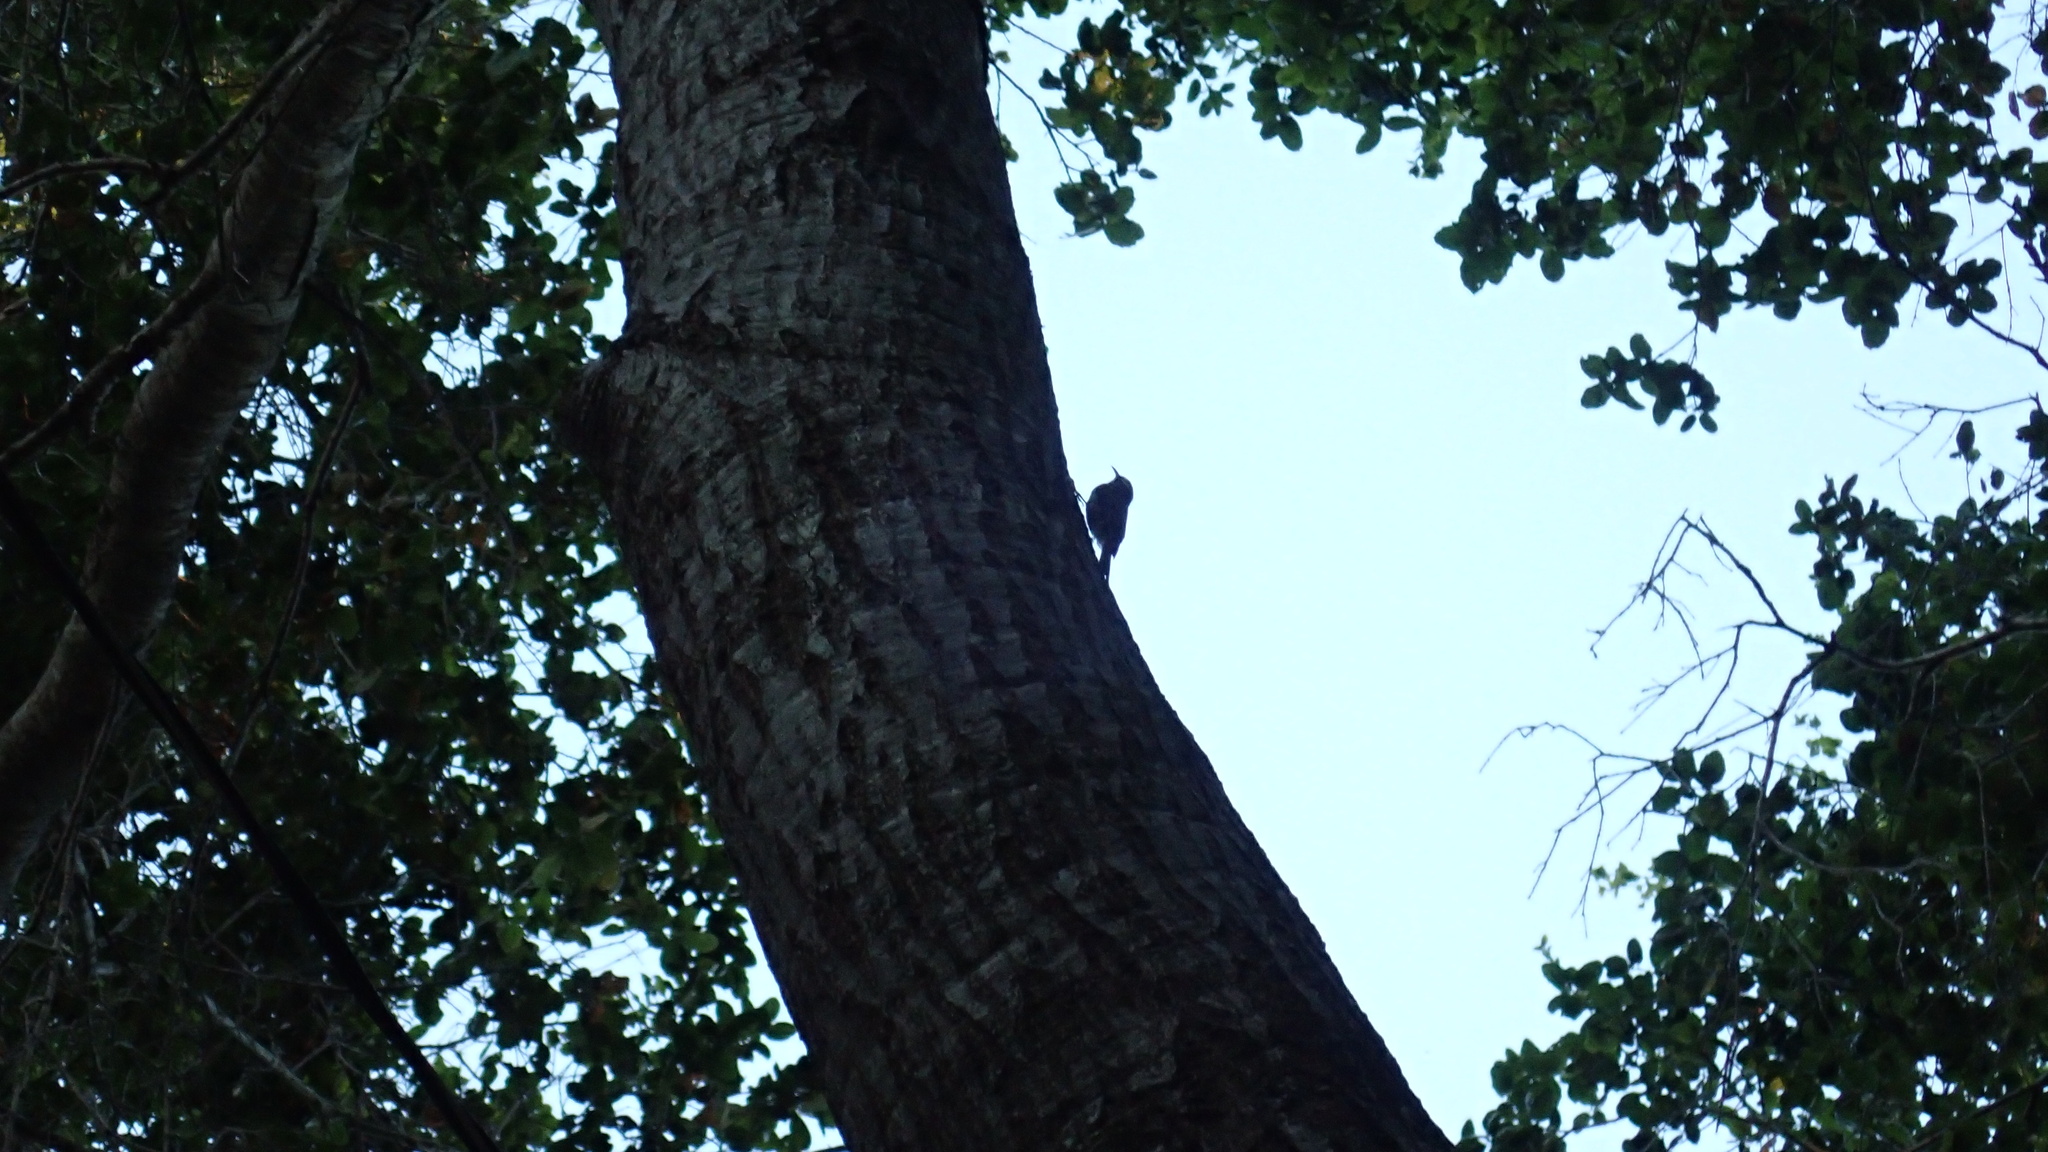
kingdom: Animalia
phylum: Chordata
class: Aves
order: Passeriformes
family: Certhiidae
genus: Certhia
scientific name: Certhia americana
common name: Brown creeper
